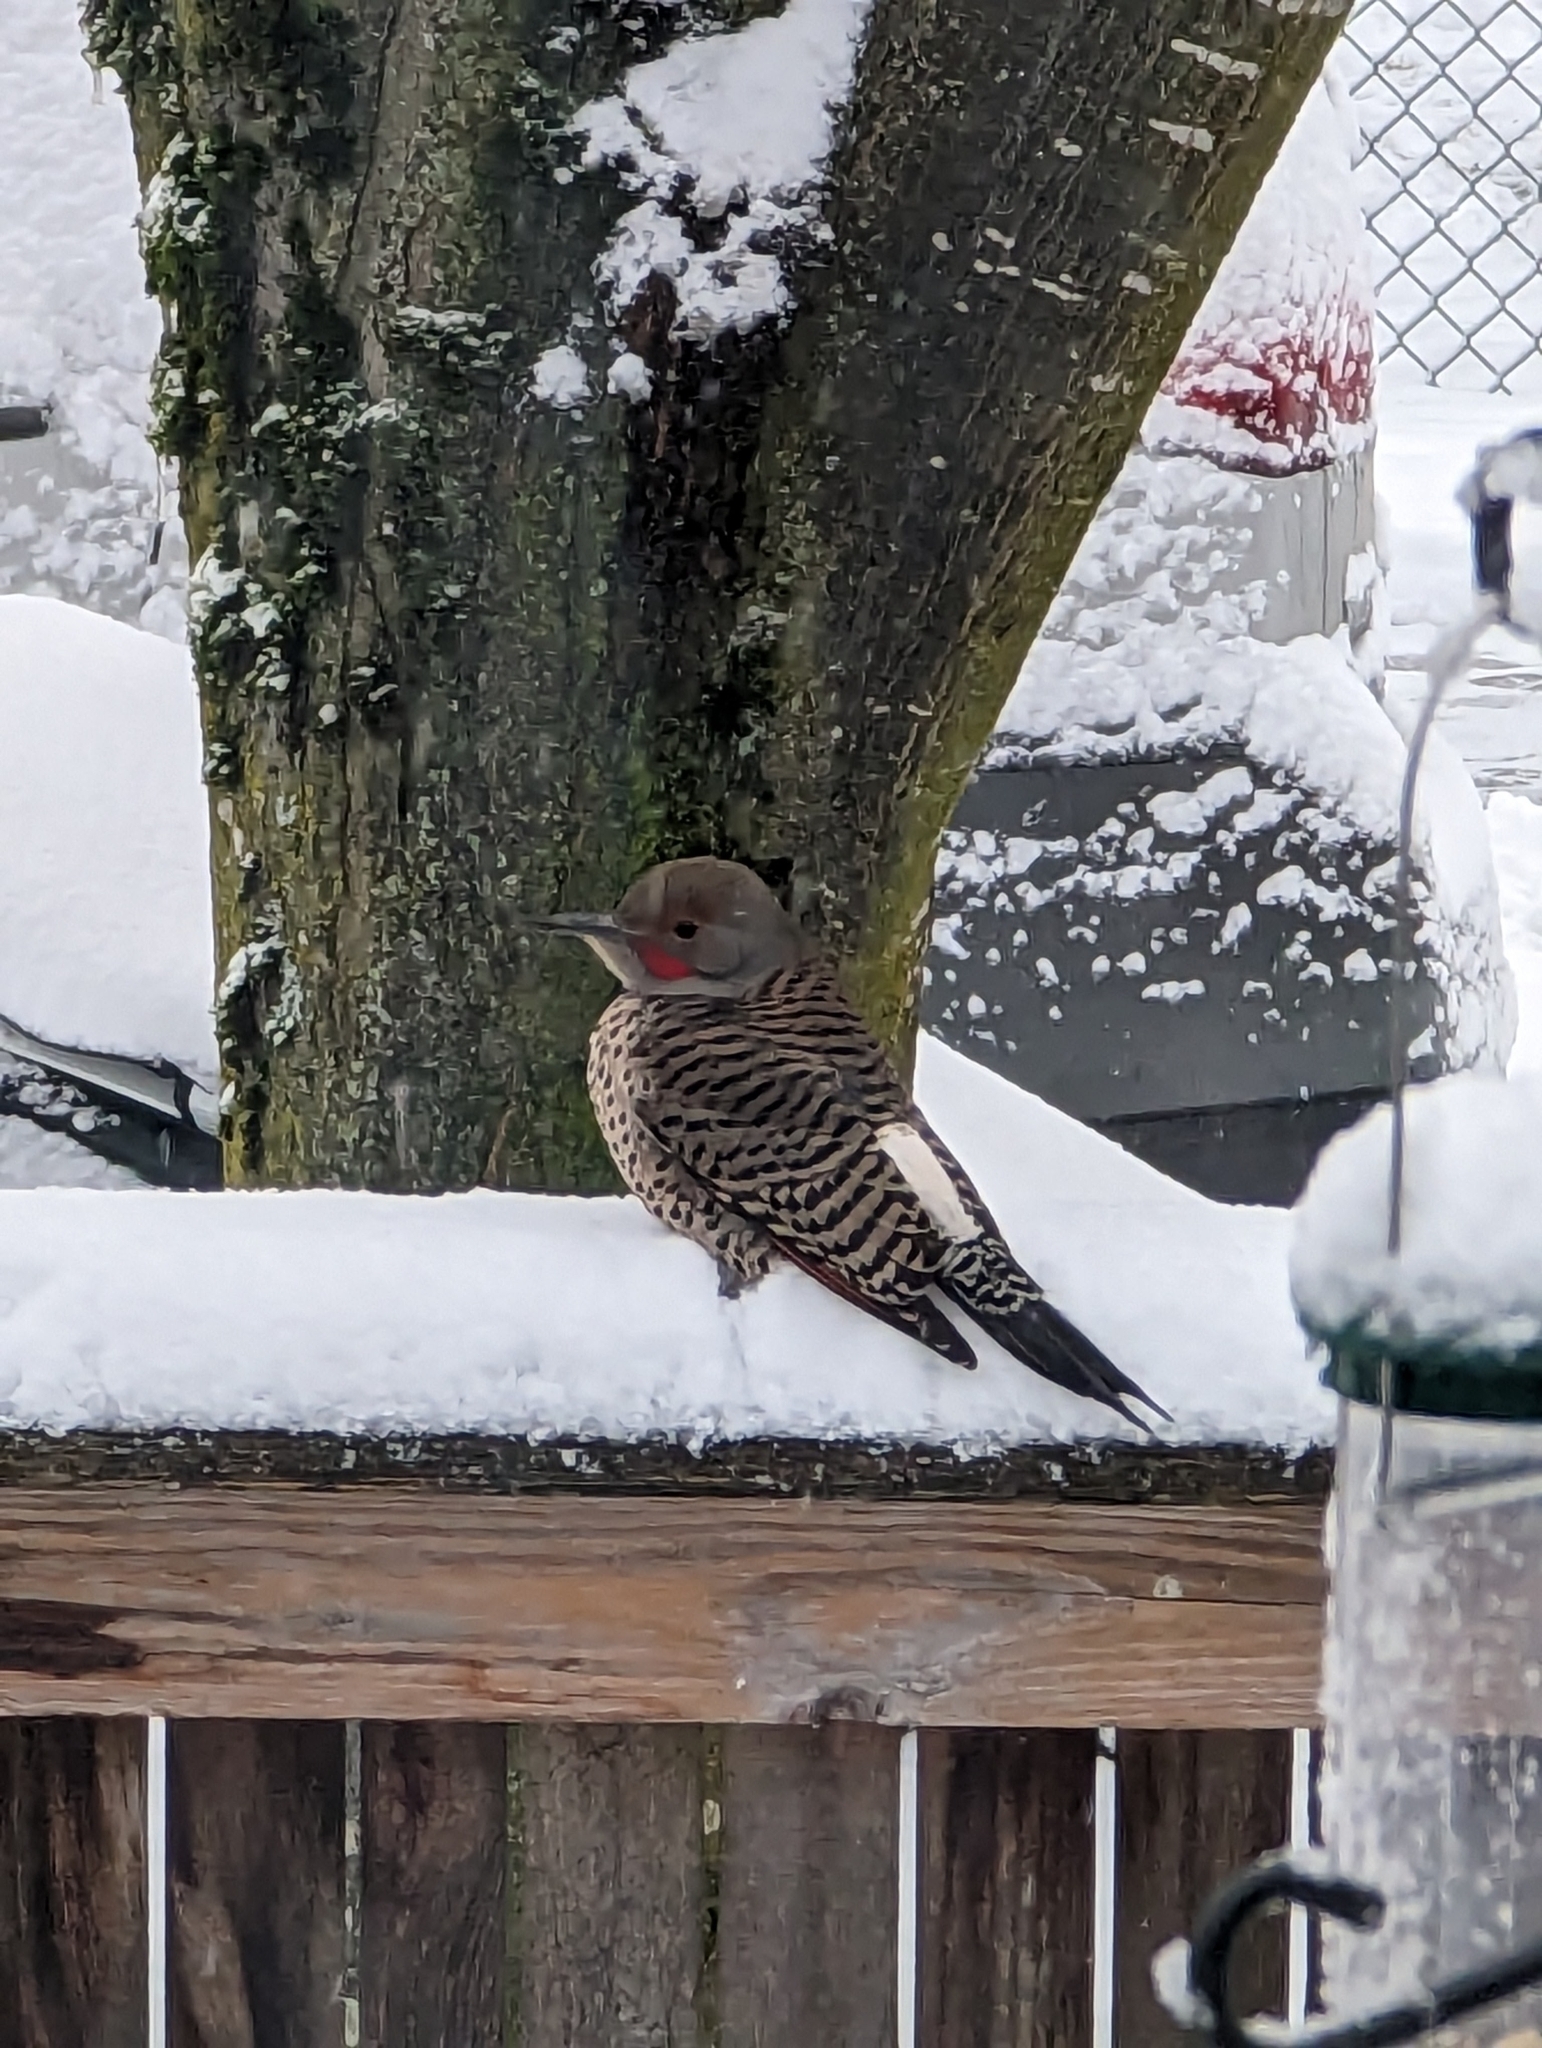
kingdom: Animalia
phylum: Chordata
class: Aves
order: Piciformes
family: Picidae
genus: Colaptes
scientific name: Colaptes auratus
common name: Northern flicker
